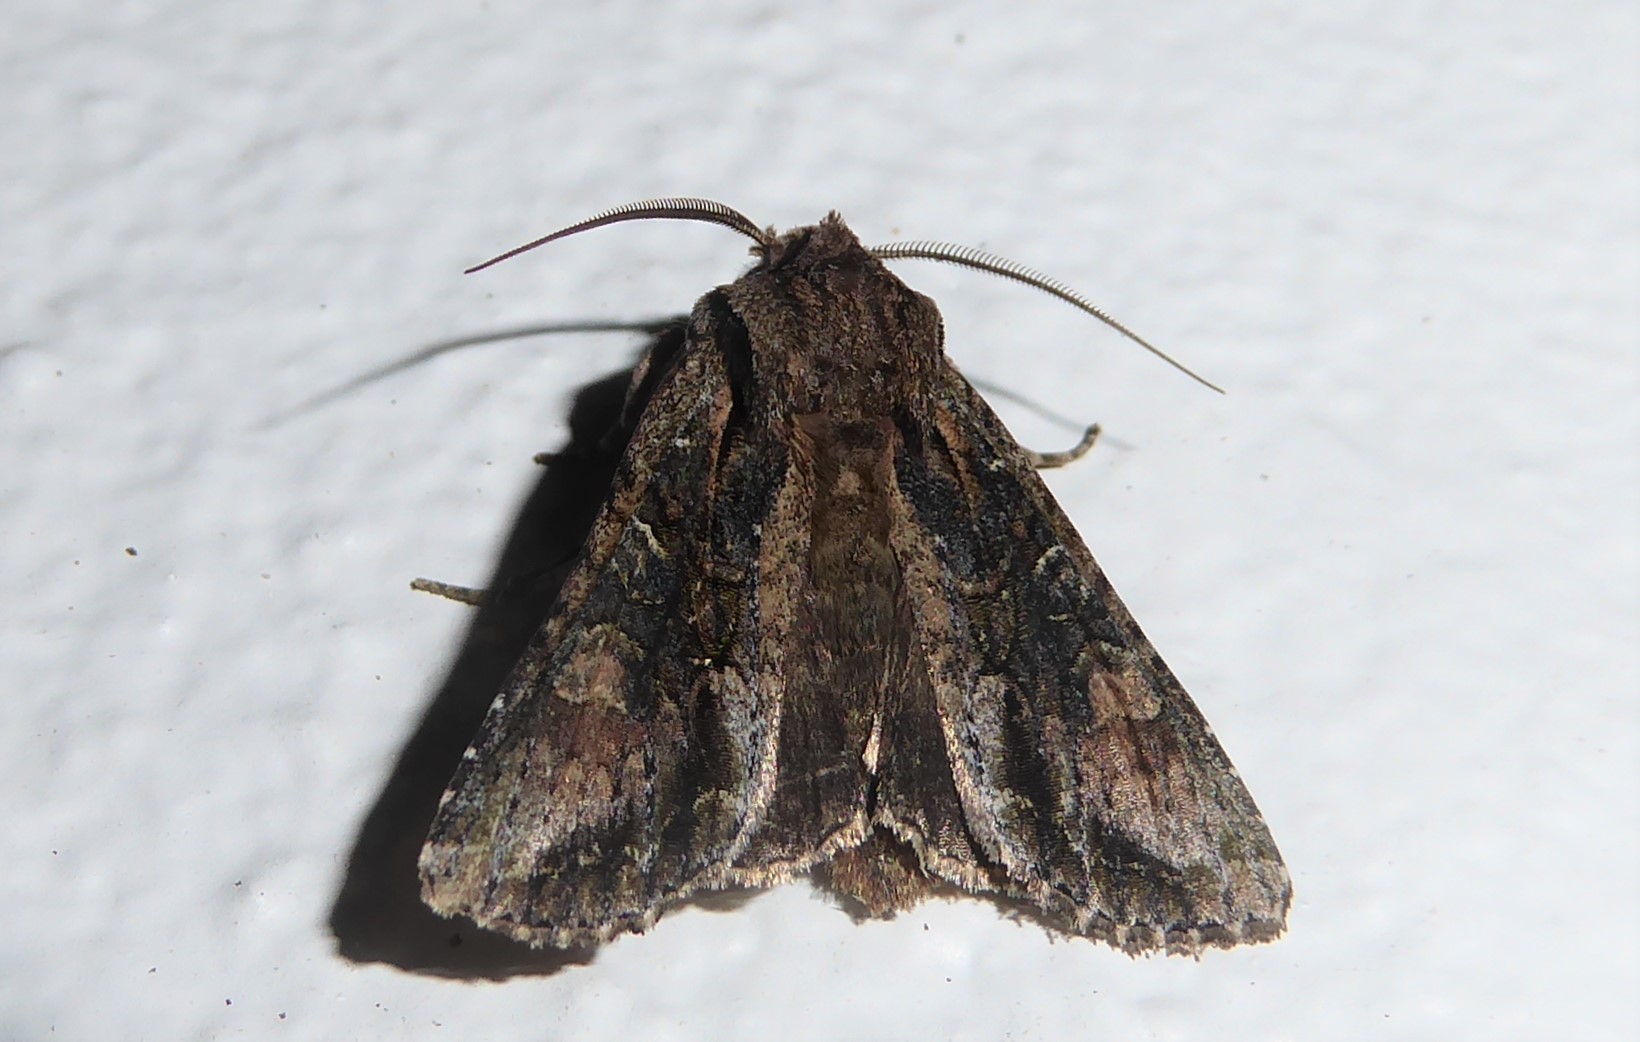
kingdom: Animalia
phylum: Arthropoda
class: Insecta
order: Lepidoptera
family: Noctuidae
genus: Ichneutica
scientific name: Ichneutica mutans
